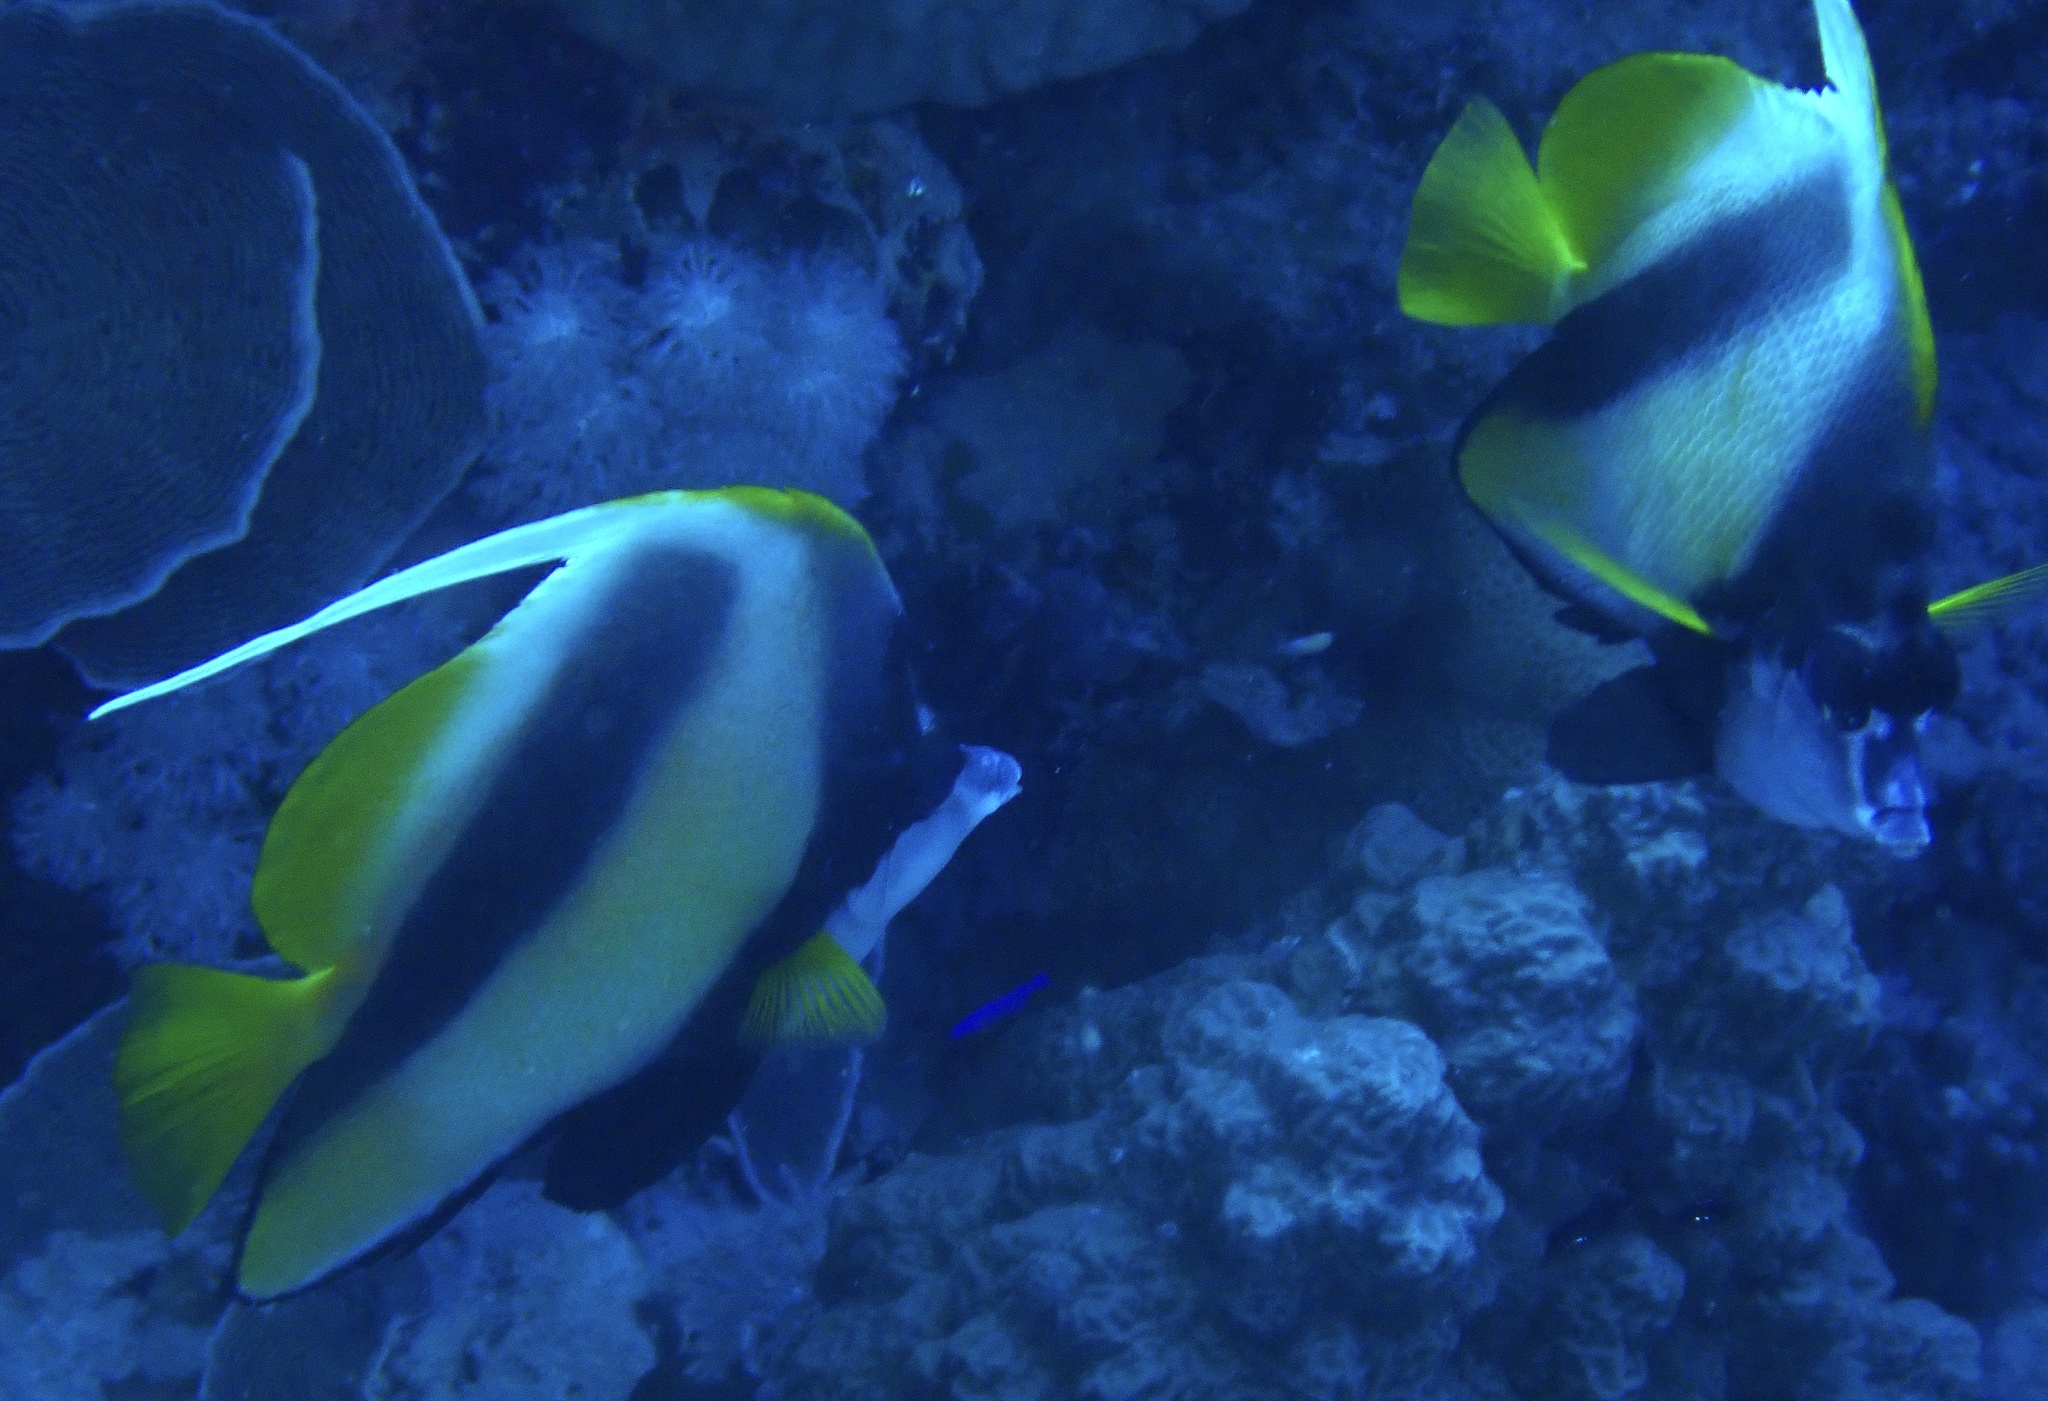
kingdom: Animalia
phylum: Chordata
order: Perciformes
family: Chaetodontidae
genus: Heniochus
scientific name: Heniochus intermedius
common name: Red sea bannerfish
